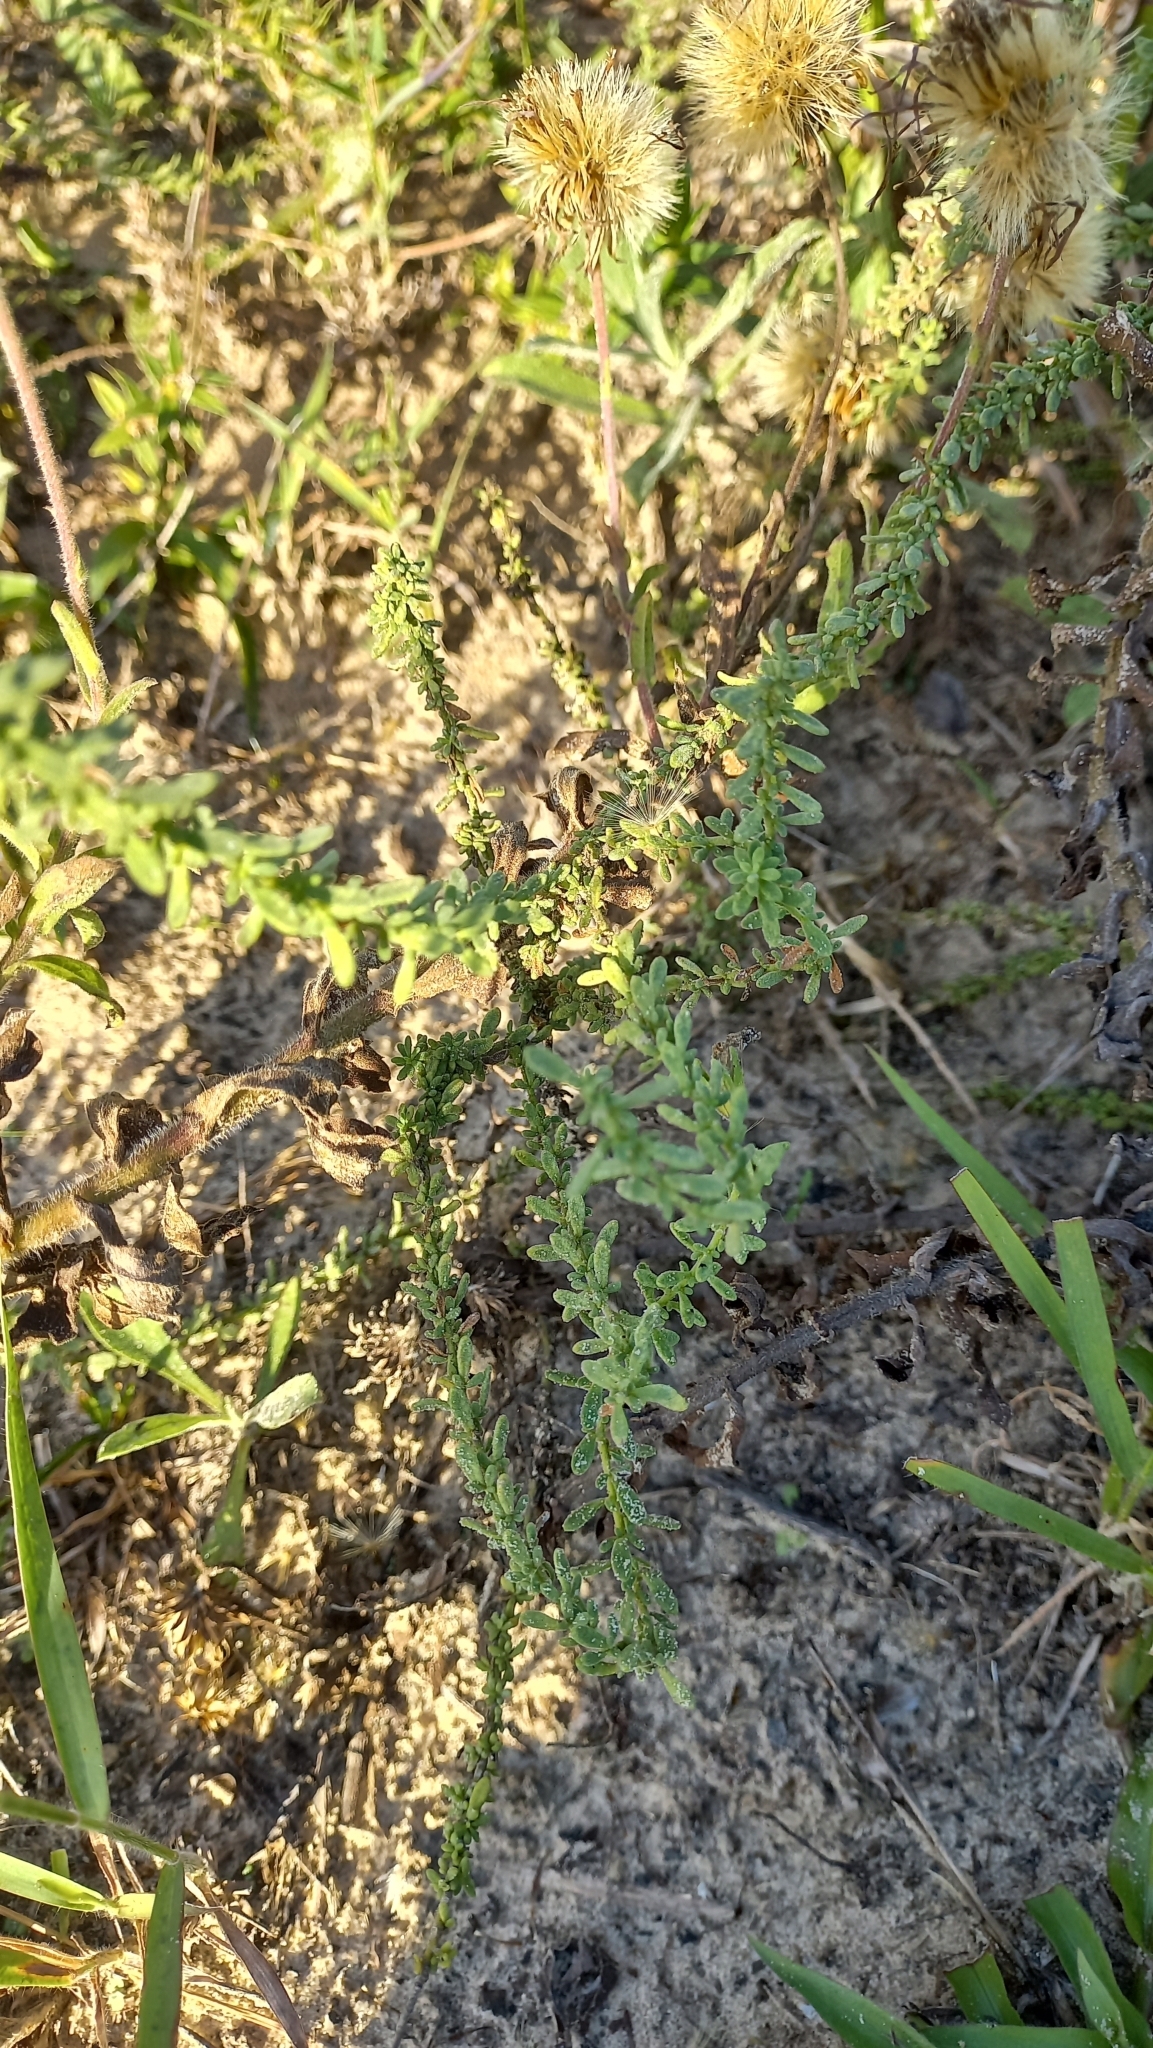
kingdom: Plantae
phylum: Tracheophyta
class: Magnoliopsida
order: Solanales
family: Solanaceae
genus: Calibrachoa
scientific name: Calibrachoa heterophylla
